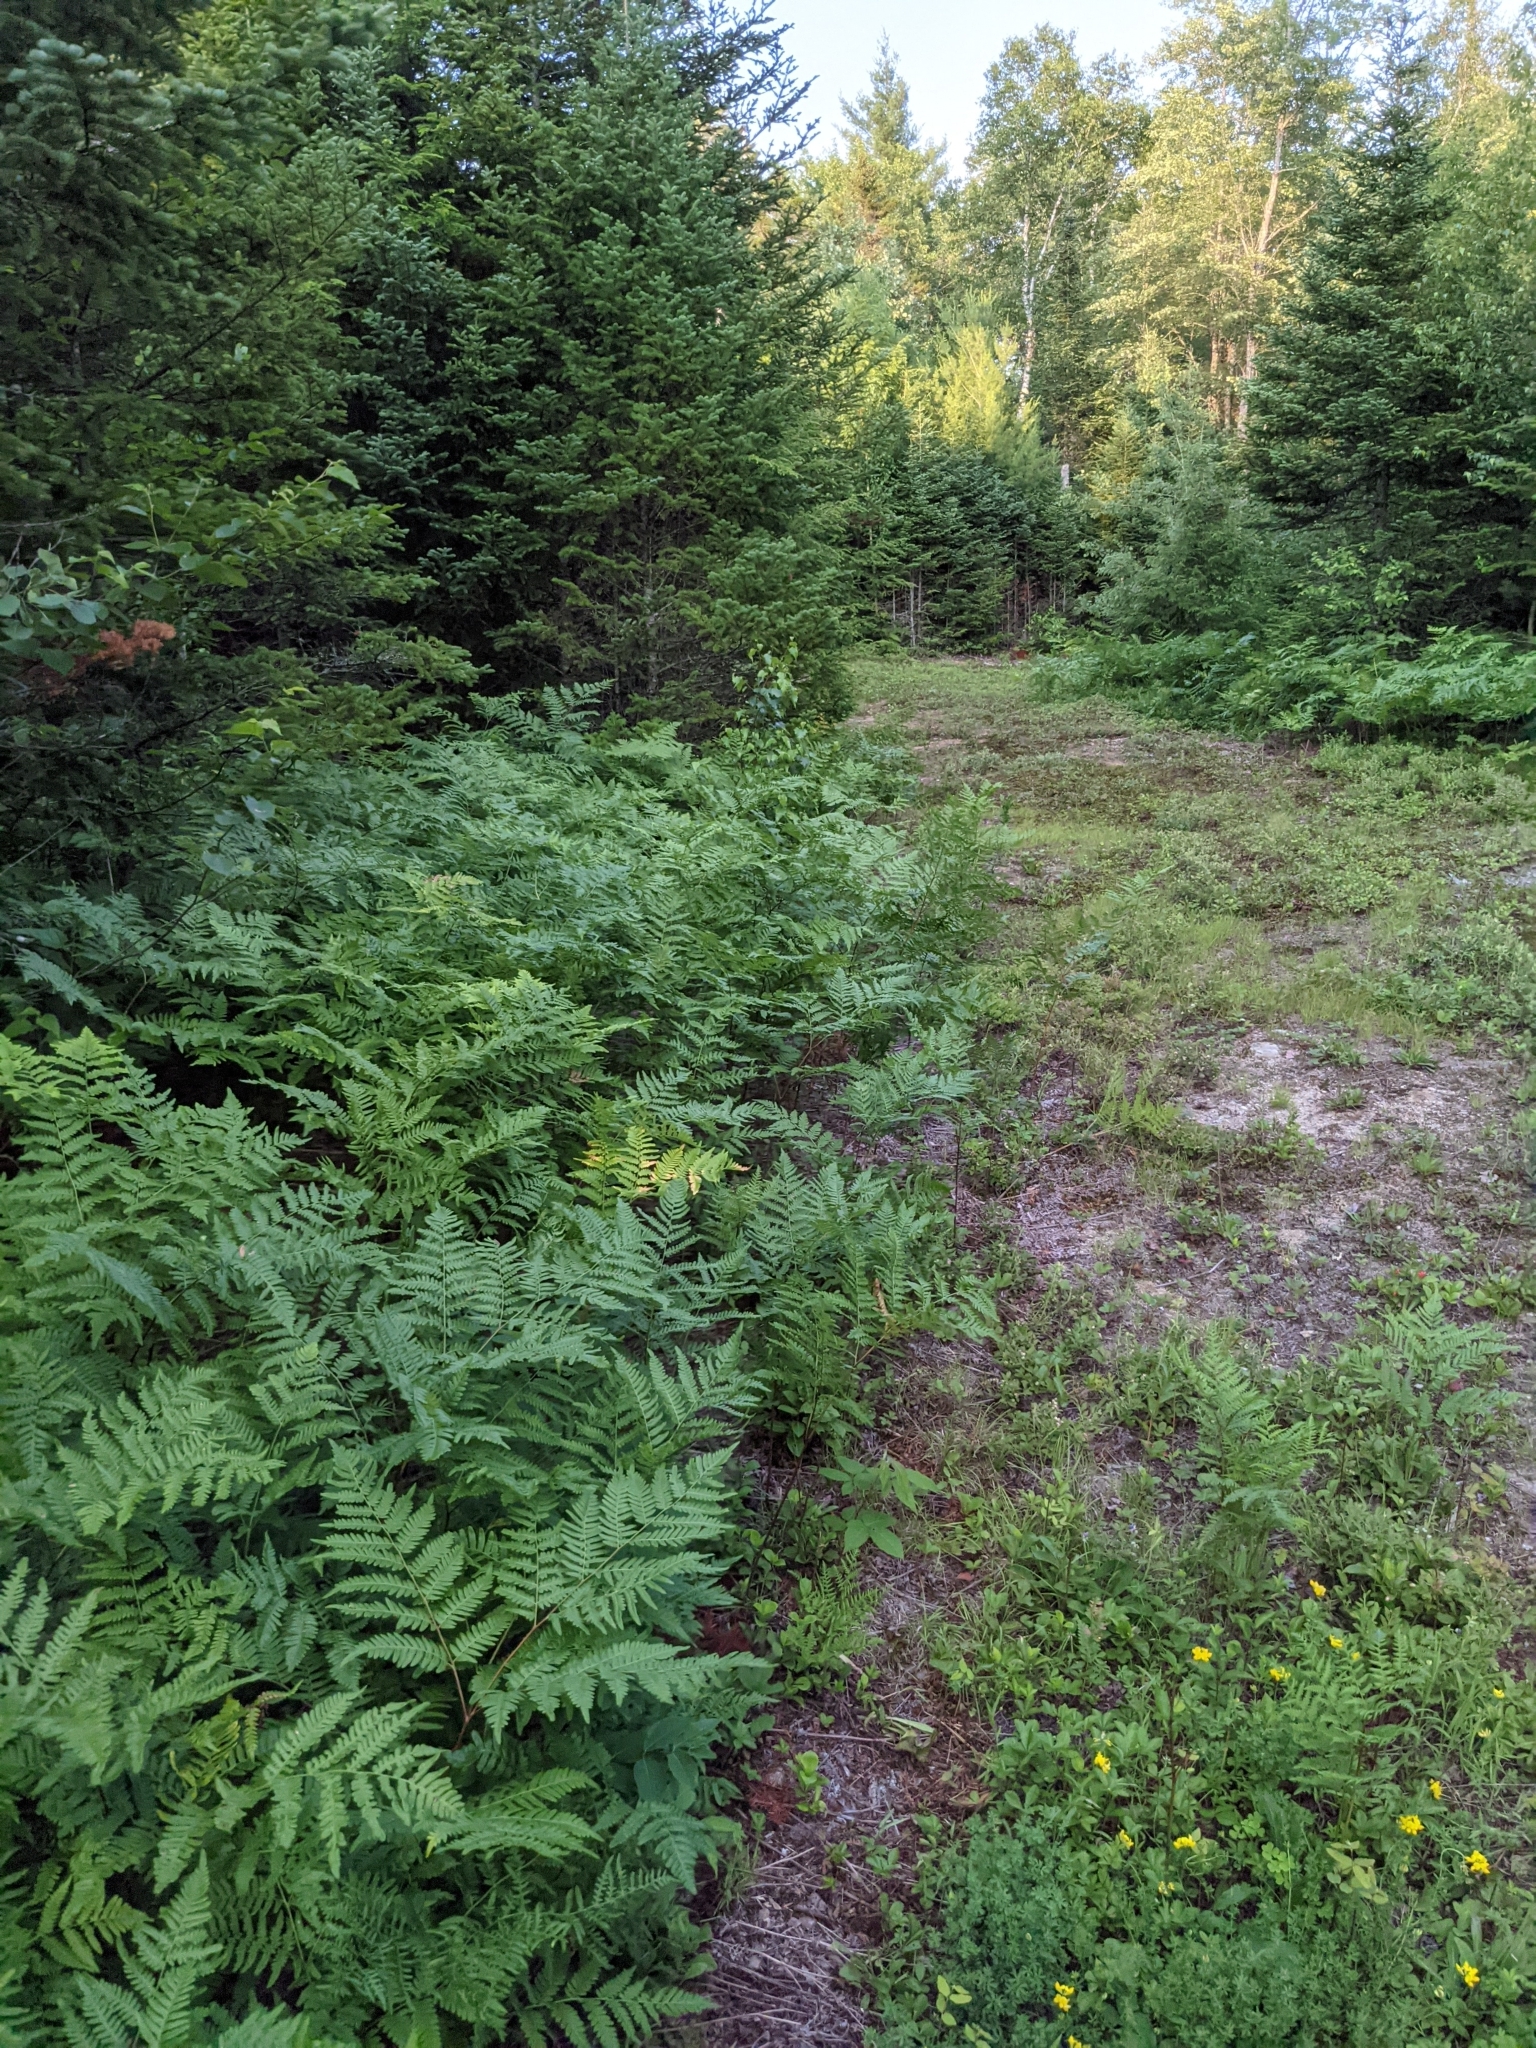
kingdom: Plantae
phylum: Tracheophyta
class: Polypodiopsida
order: Polypodiales
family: Dennstaedtiaceae
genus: Pteridium
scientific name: Pteridium aquilinum
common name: Bracken
